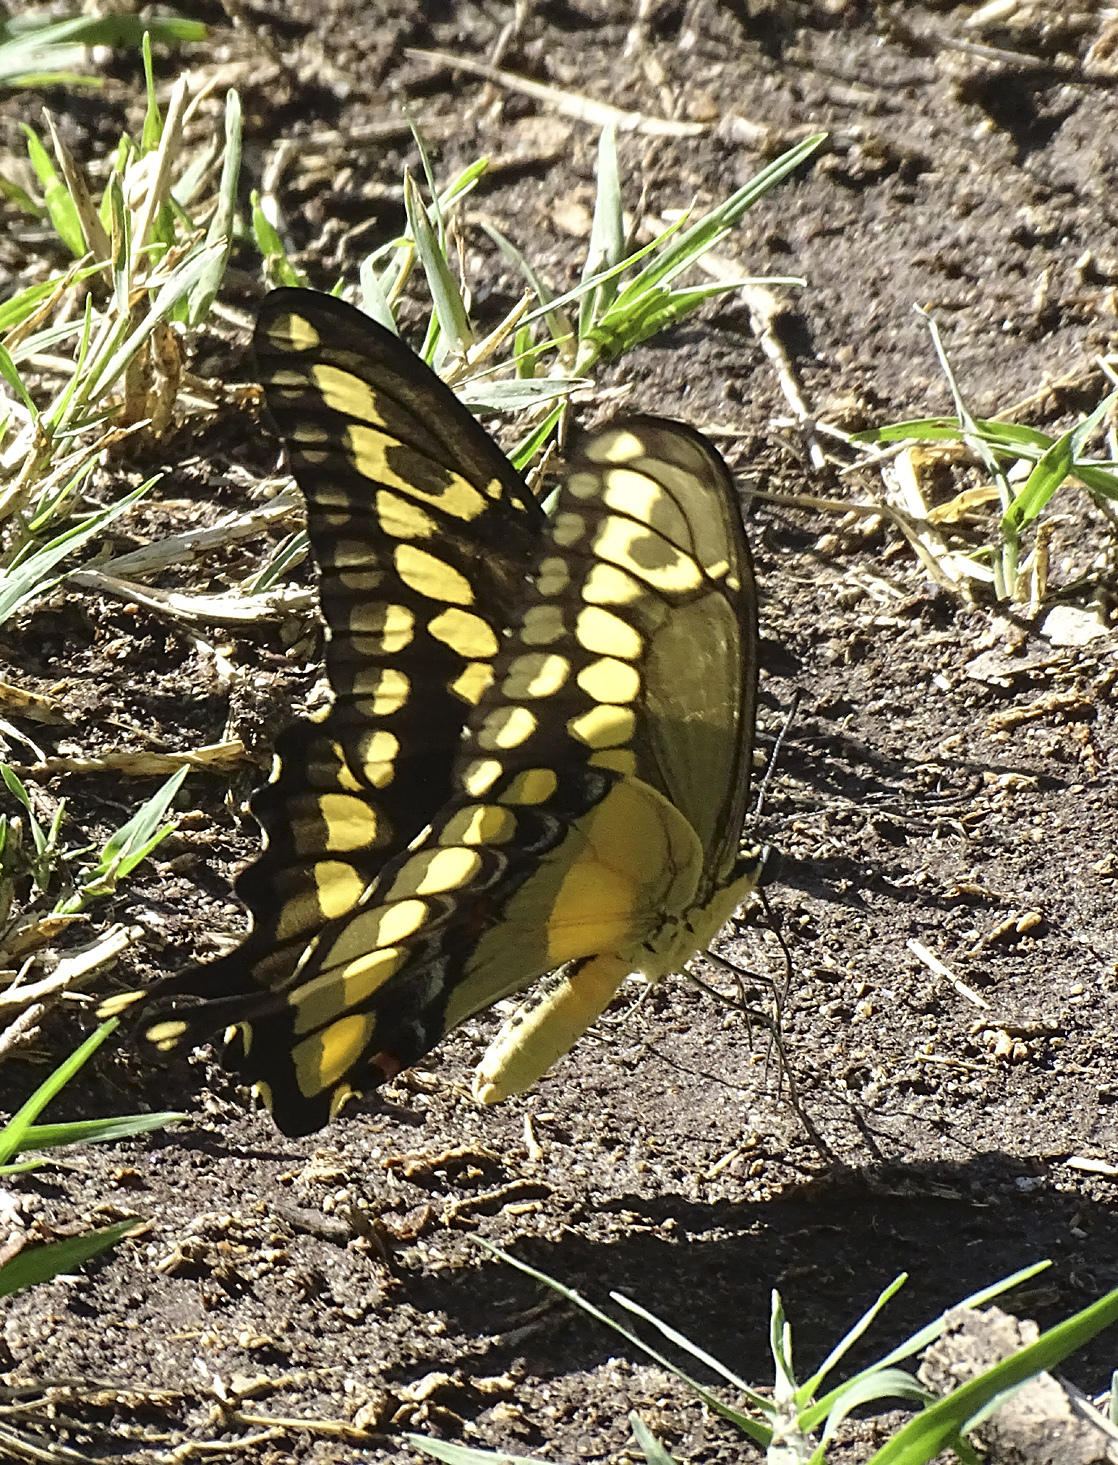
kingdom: Animalia
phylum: Arthropoda
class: Insecta
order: Lepidoptera
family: Papilionidae
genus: Papilio
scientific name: Papilio rumiko
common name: Western giant swallowtail
